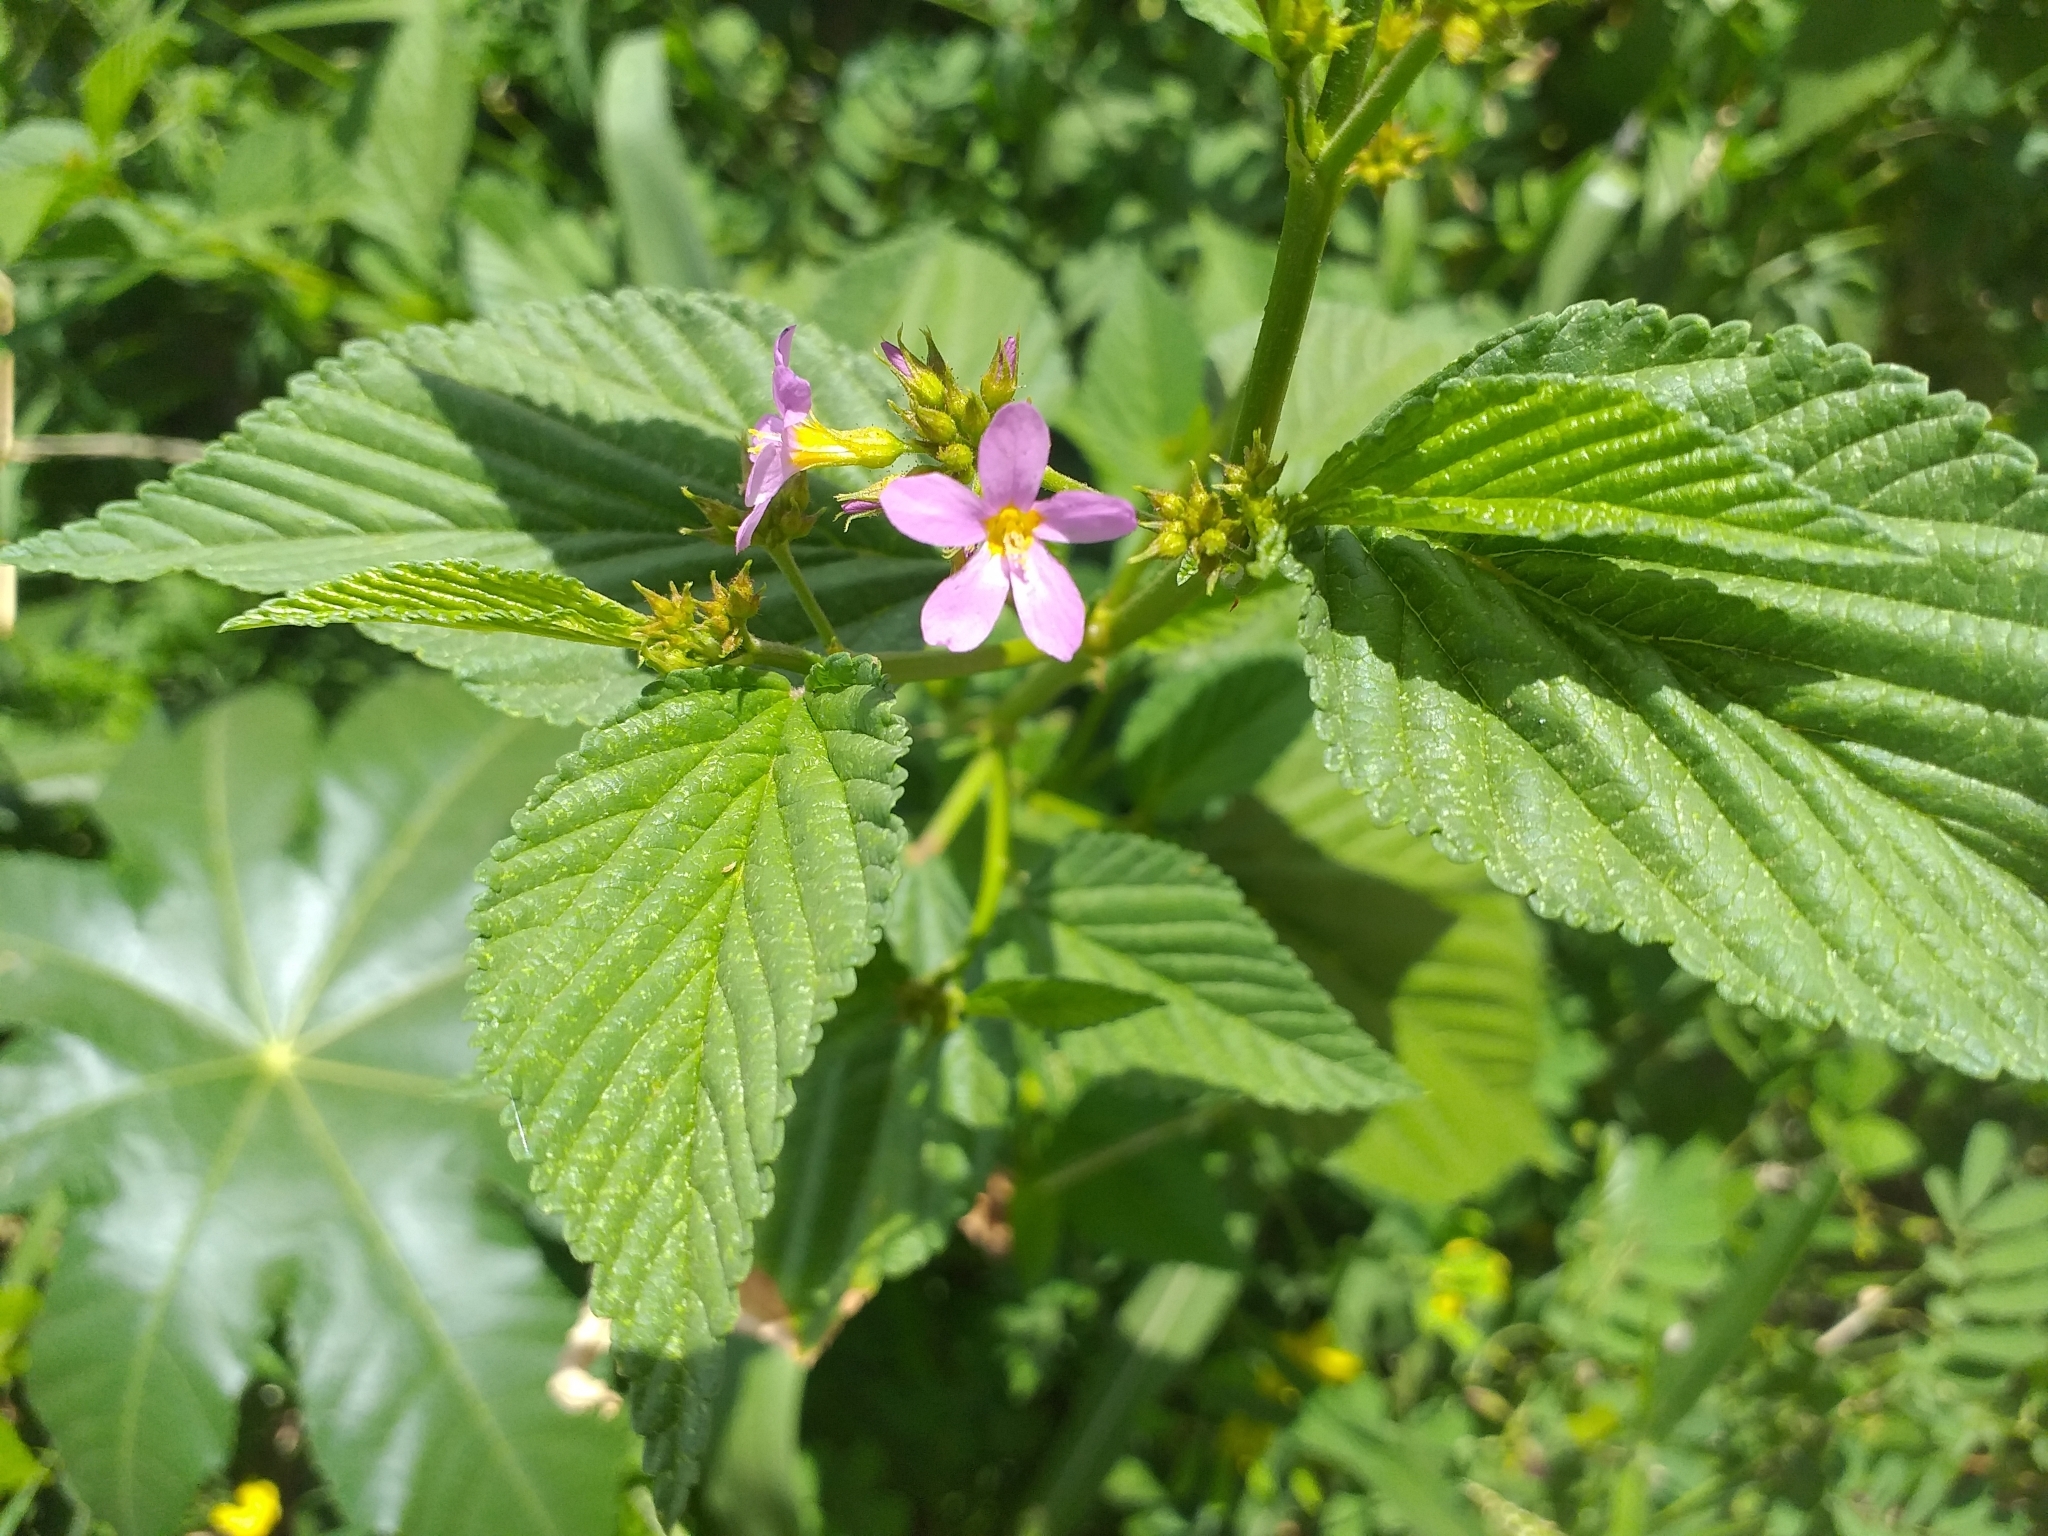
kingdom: Plantae
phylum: Tracheophyta
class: Magnoliopsida
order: Malvales
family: Malvaceae
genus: Melochia
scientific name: Melochia pyramidata
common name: Pyramidflower
